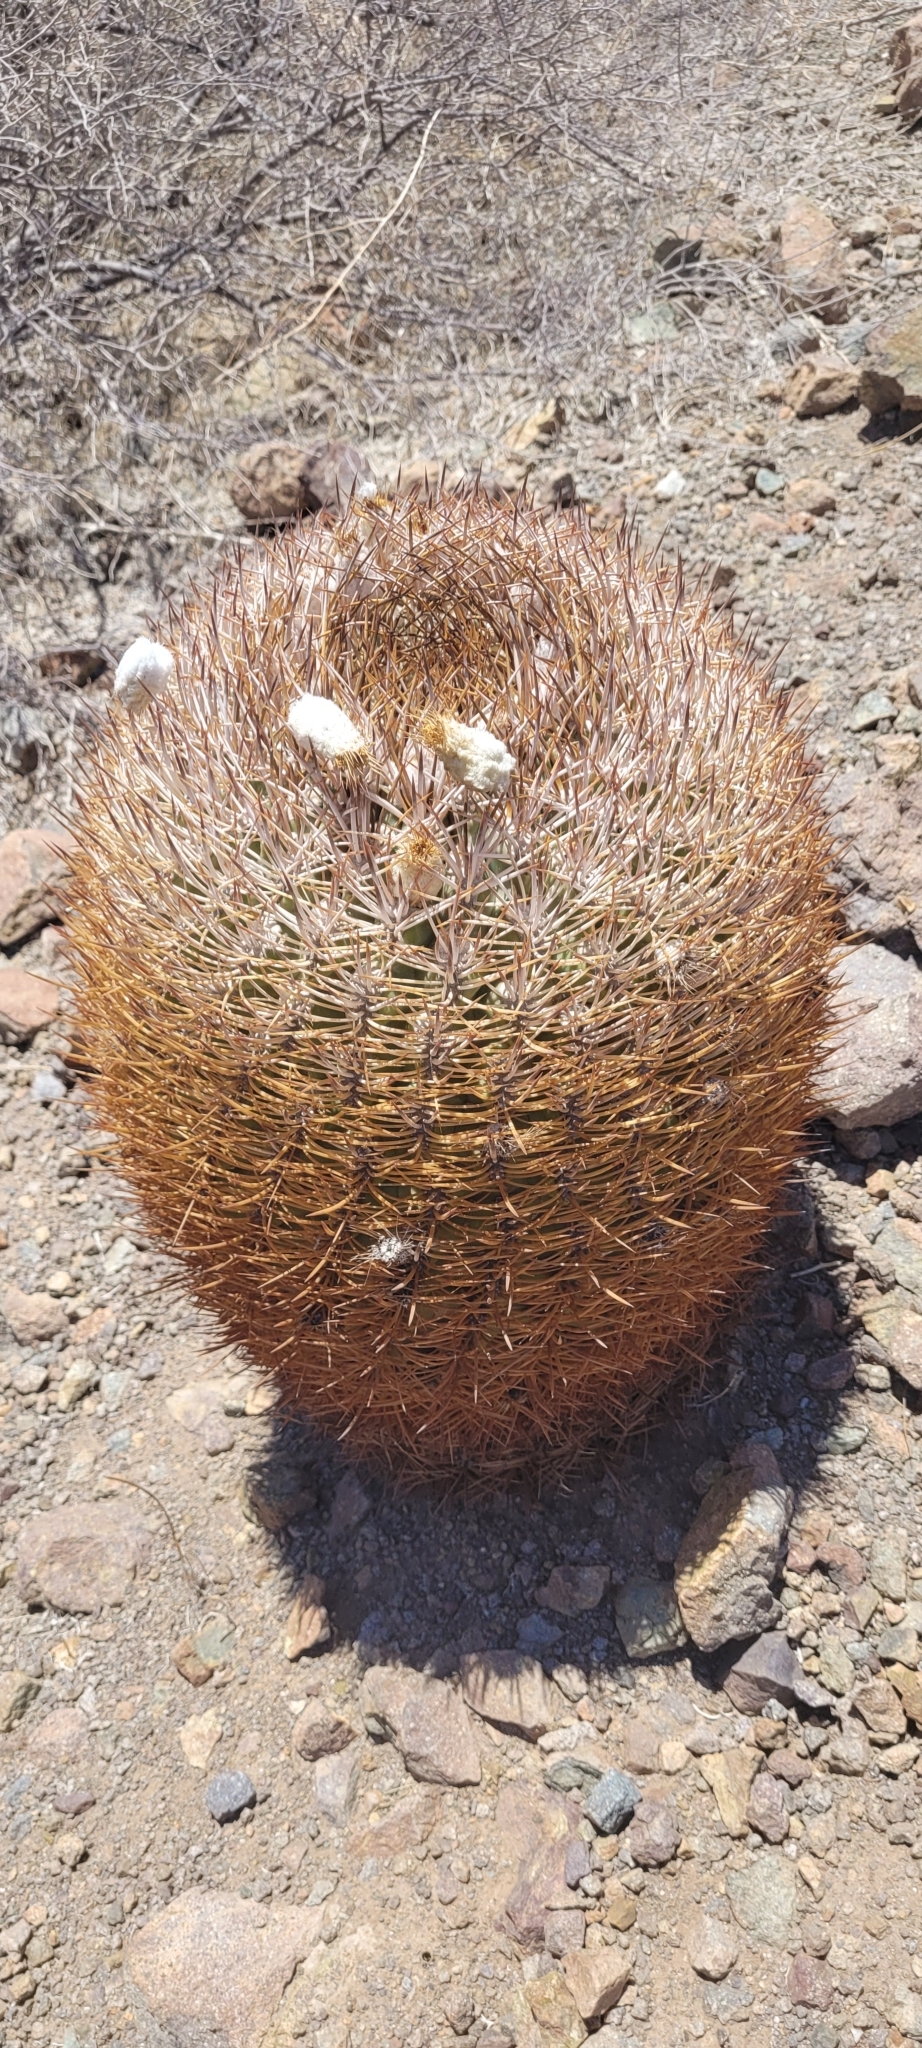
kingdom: Plantae
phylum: Tracheophyta
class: Magnoliopsida
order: Caryophyllales
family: Cactaceae
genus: Eriosyce
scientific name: Eriosyce aurata
